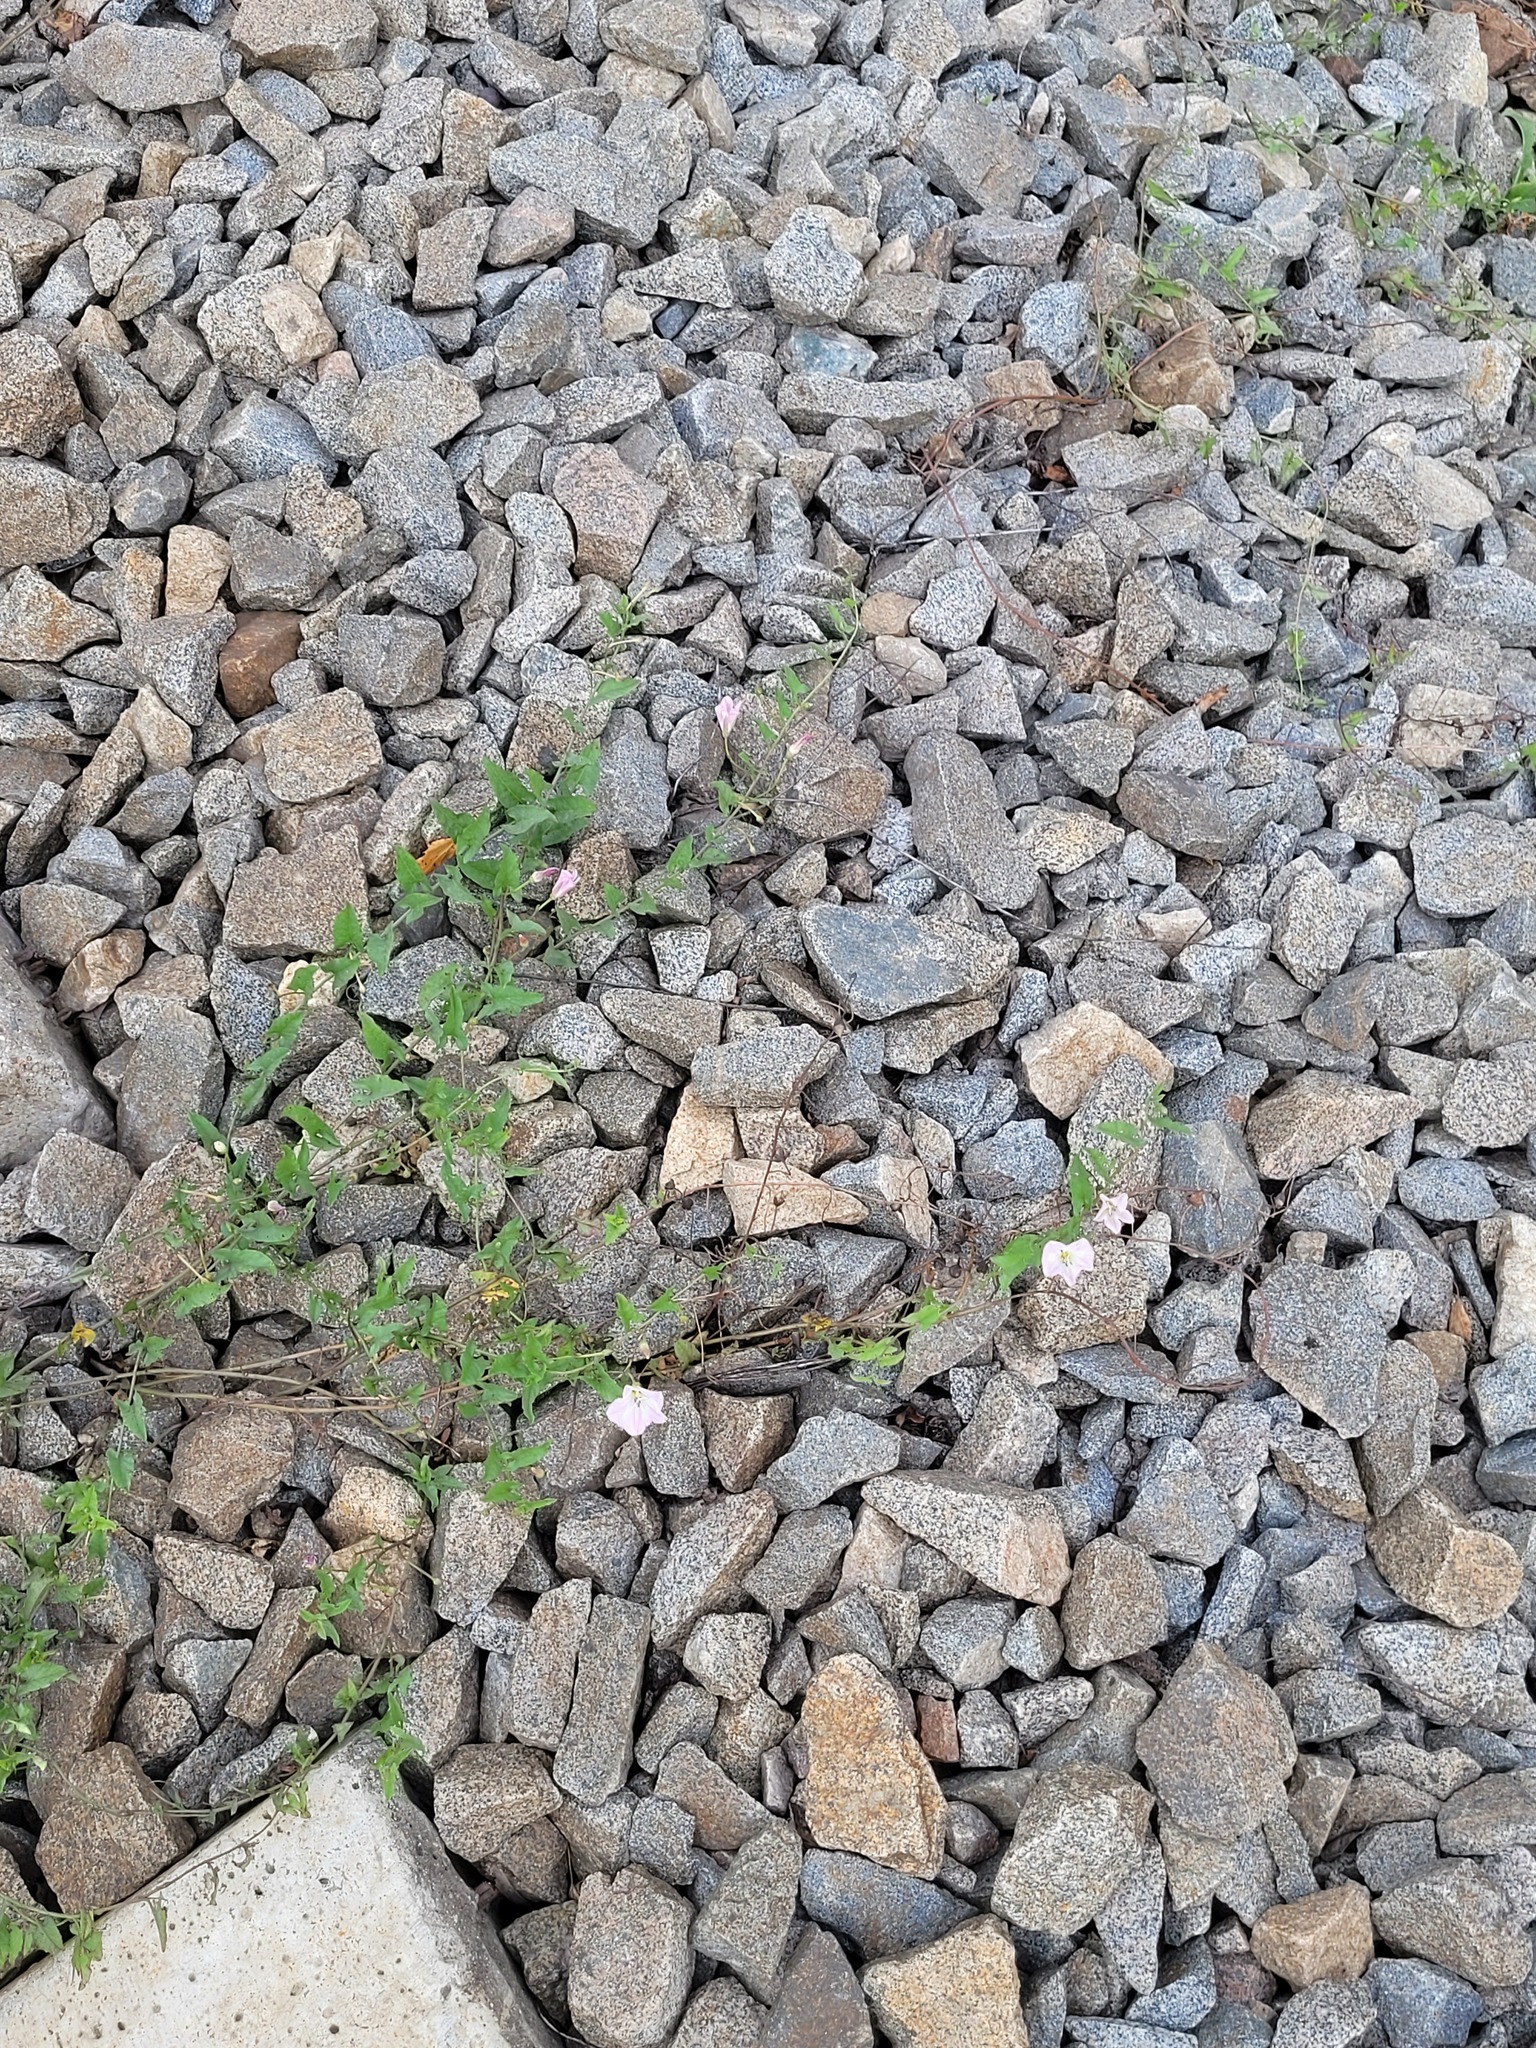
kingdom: Plantae
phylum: Tracheophyta
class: Magnoliopsida
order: Solanales
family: Convolvulaceae
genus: Convolvulus
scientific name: Convolvulus arvensis
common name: Field bindweed
